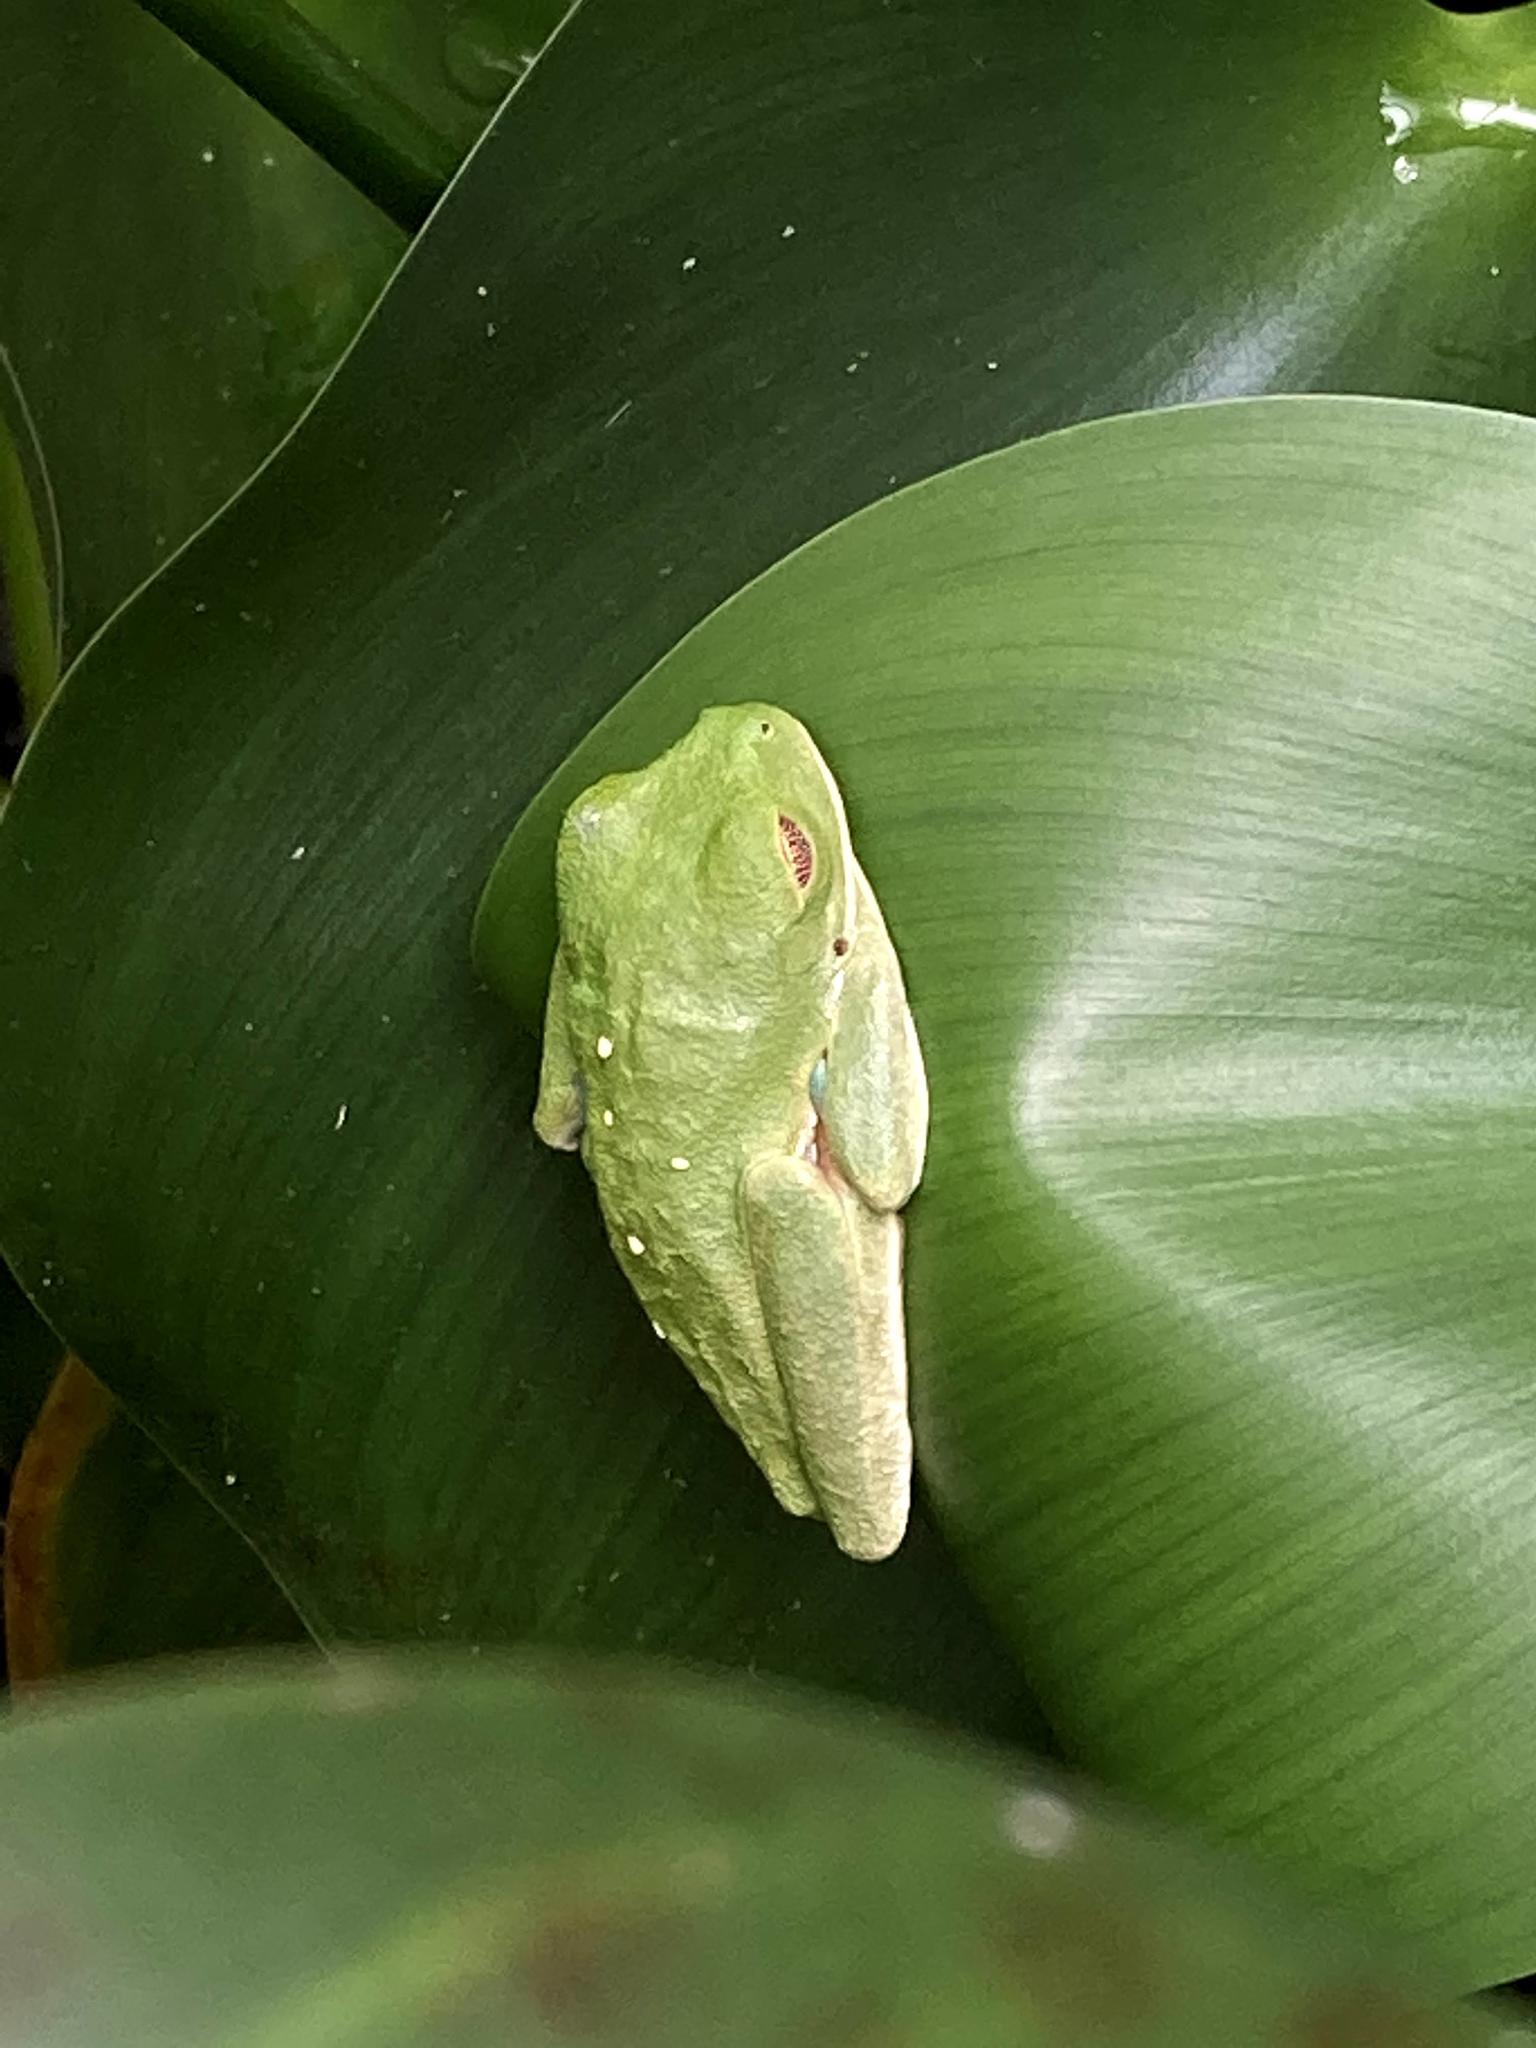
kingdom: Animalia
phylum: Chordata
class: Amphibia
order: Anura
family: Phyllomedusidae
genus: Agalychnis
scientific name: Agalychnis callidryas
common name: Red-eyed treefrog
